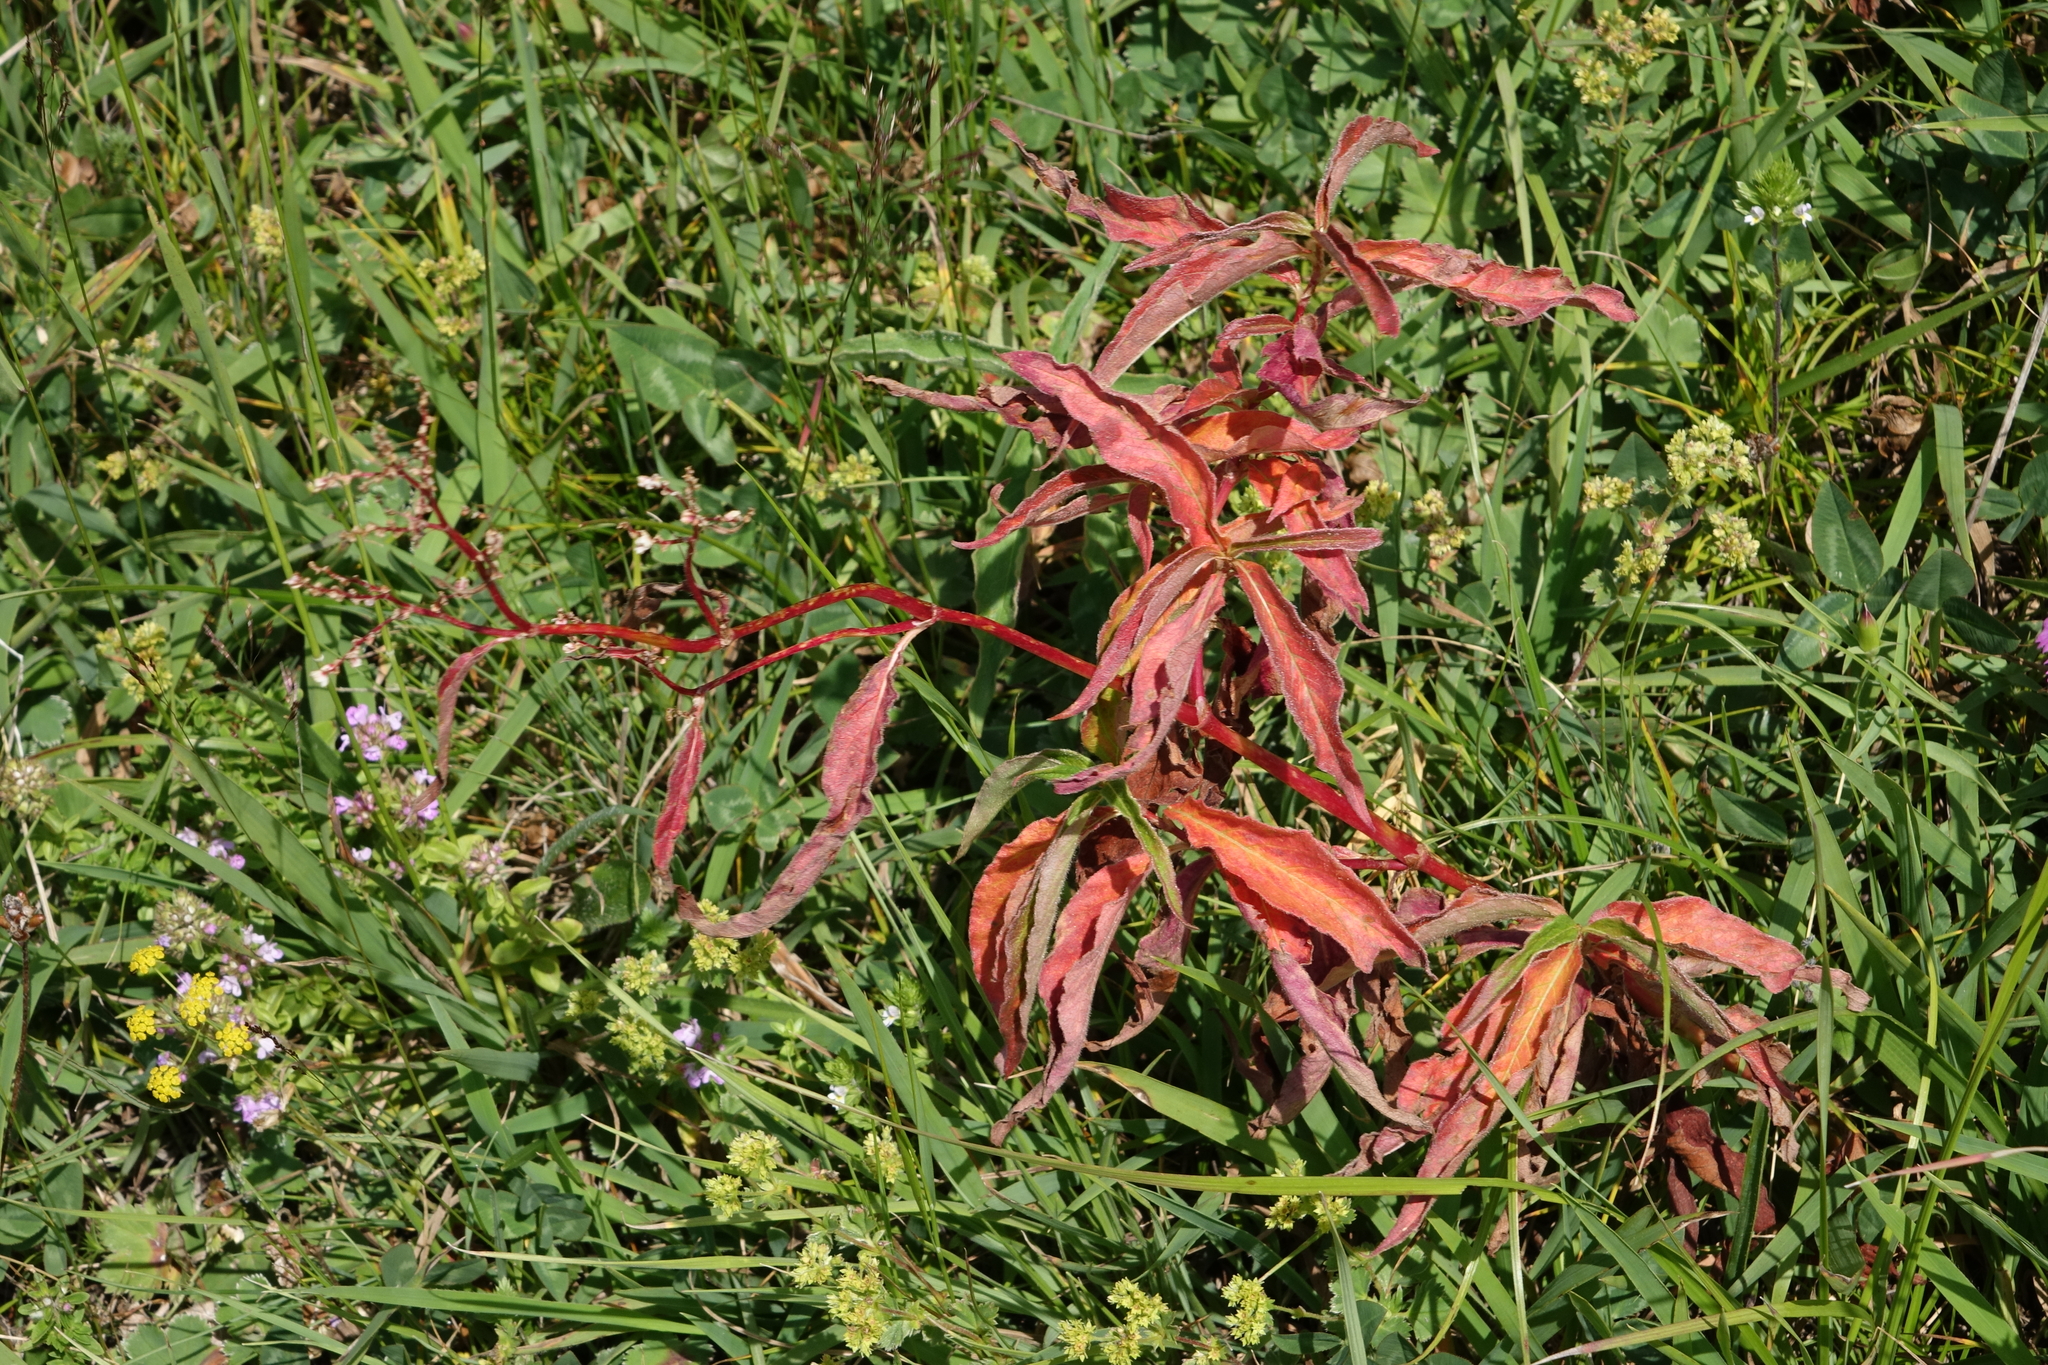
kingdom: Plantae
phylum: Tracheophyta
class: Magnoliopsida
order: Caryophyllales
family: Polygonaceae
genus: Koenigia
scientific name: Koenigia alpina
